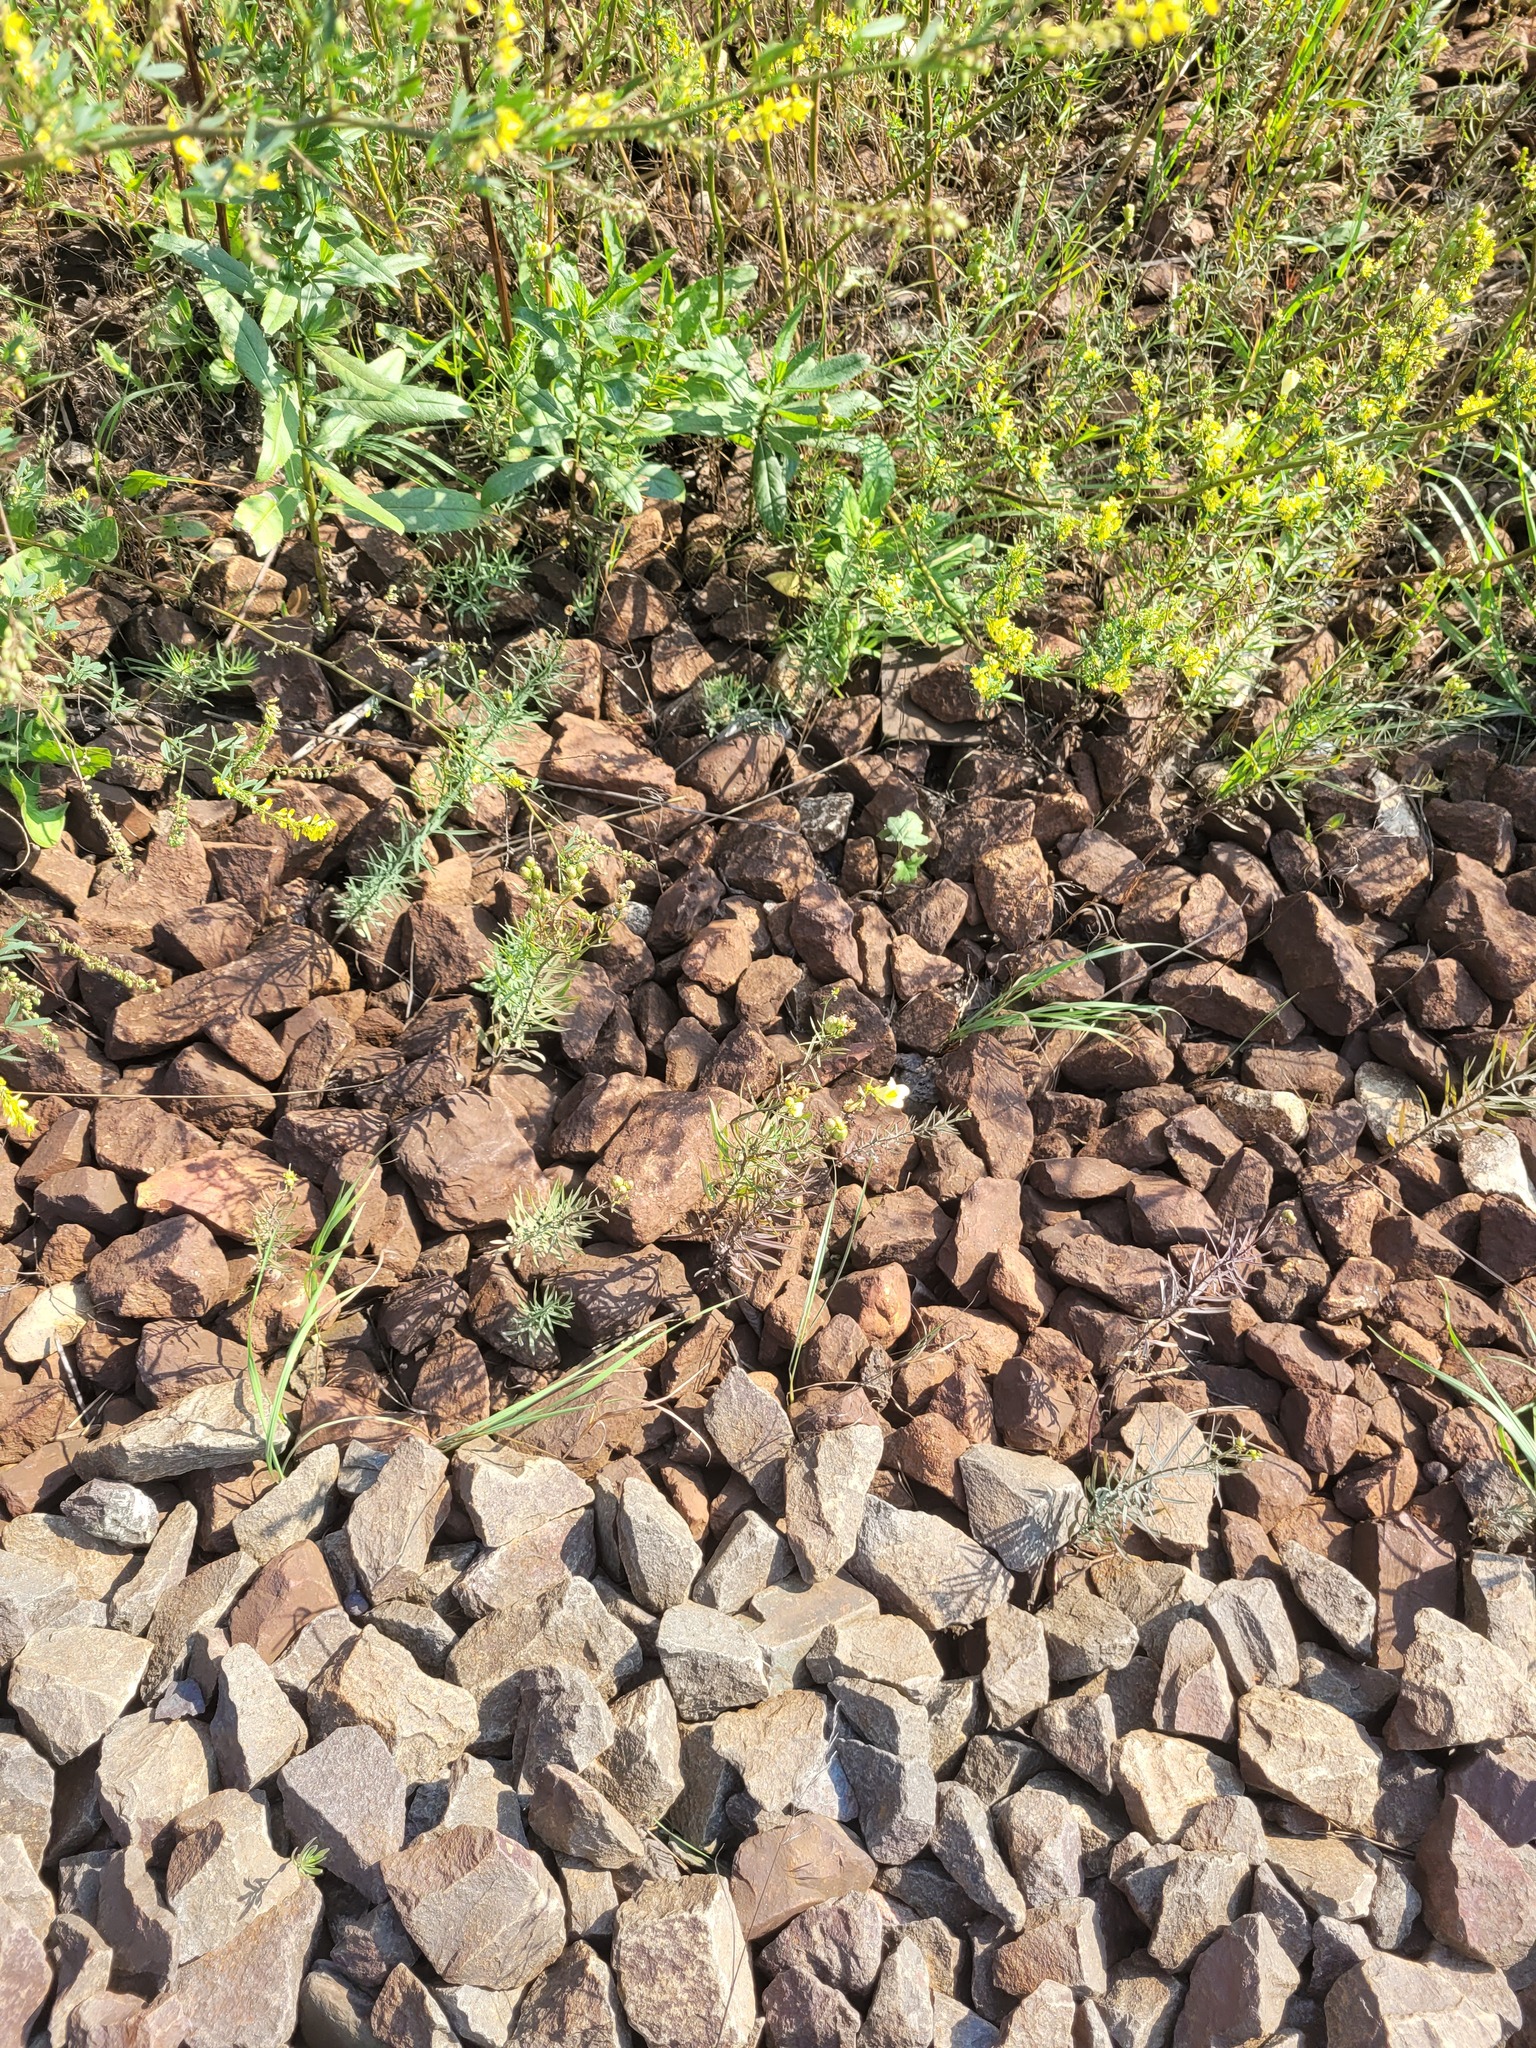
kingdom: Plantae
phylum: Tracheophyta
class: Magnoliopsida
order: Lamiales
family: Plantaginaceae
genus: Linaria
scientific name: Linaria vulgaris
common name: Butter and eggs
